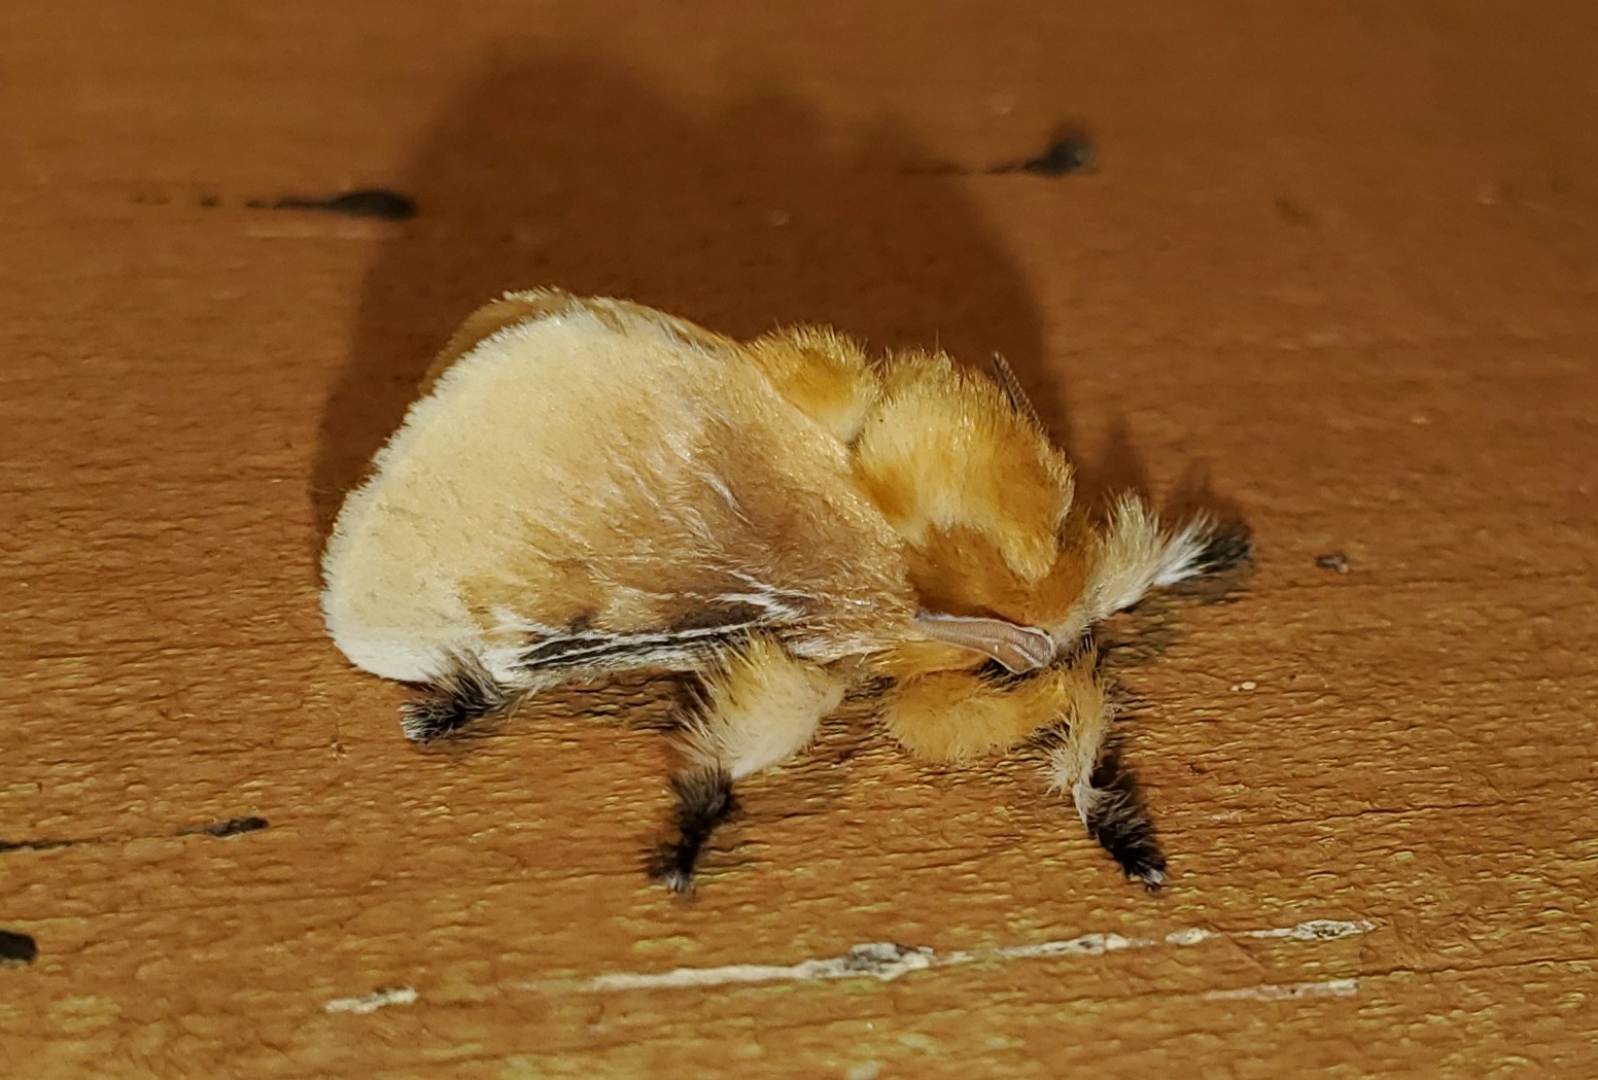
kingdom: Animalia
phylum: Arthropoda
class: Insecta
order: Lepidoptera
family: Megalopygidae
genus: Megalopyge
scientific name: Megalopyge opercularis
